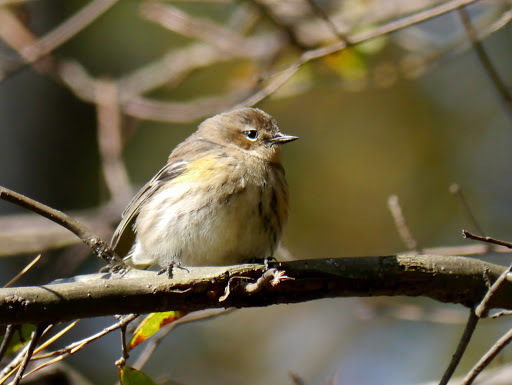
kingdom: Animalia
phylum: Chordata
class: Aves
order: Passeriformes
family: Parulidae
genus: Setophaga
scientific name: Setophaga coronata
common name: Myrtle warbler
